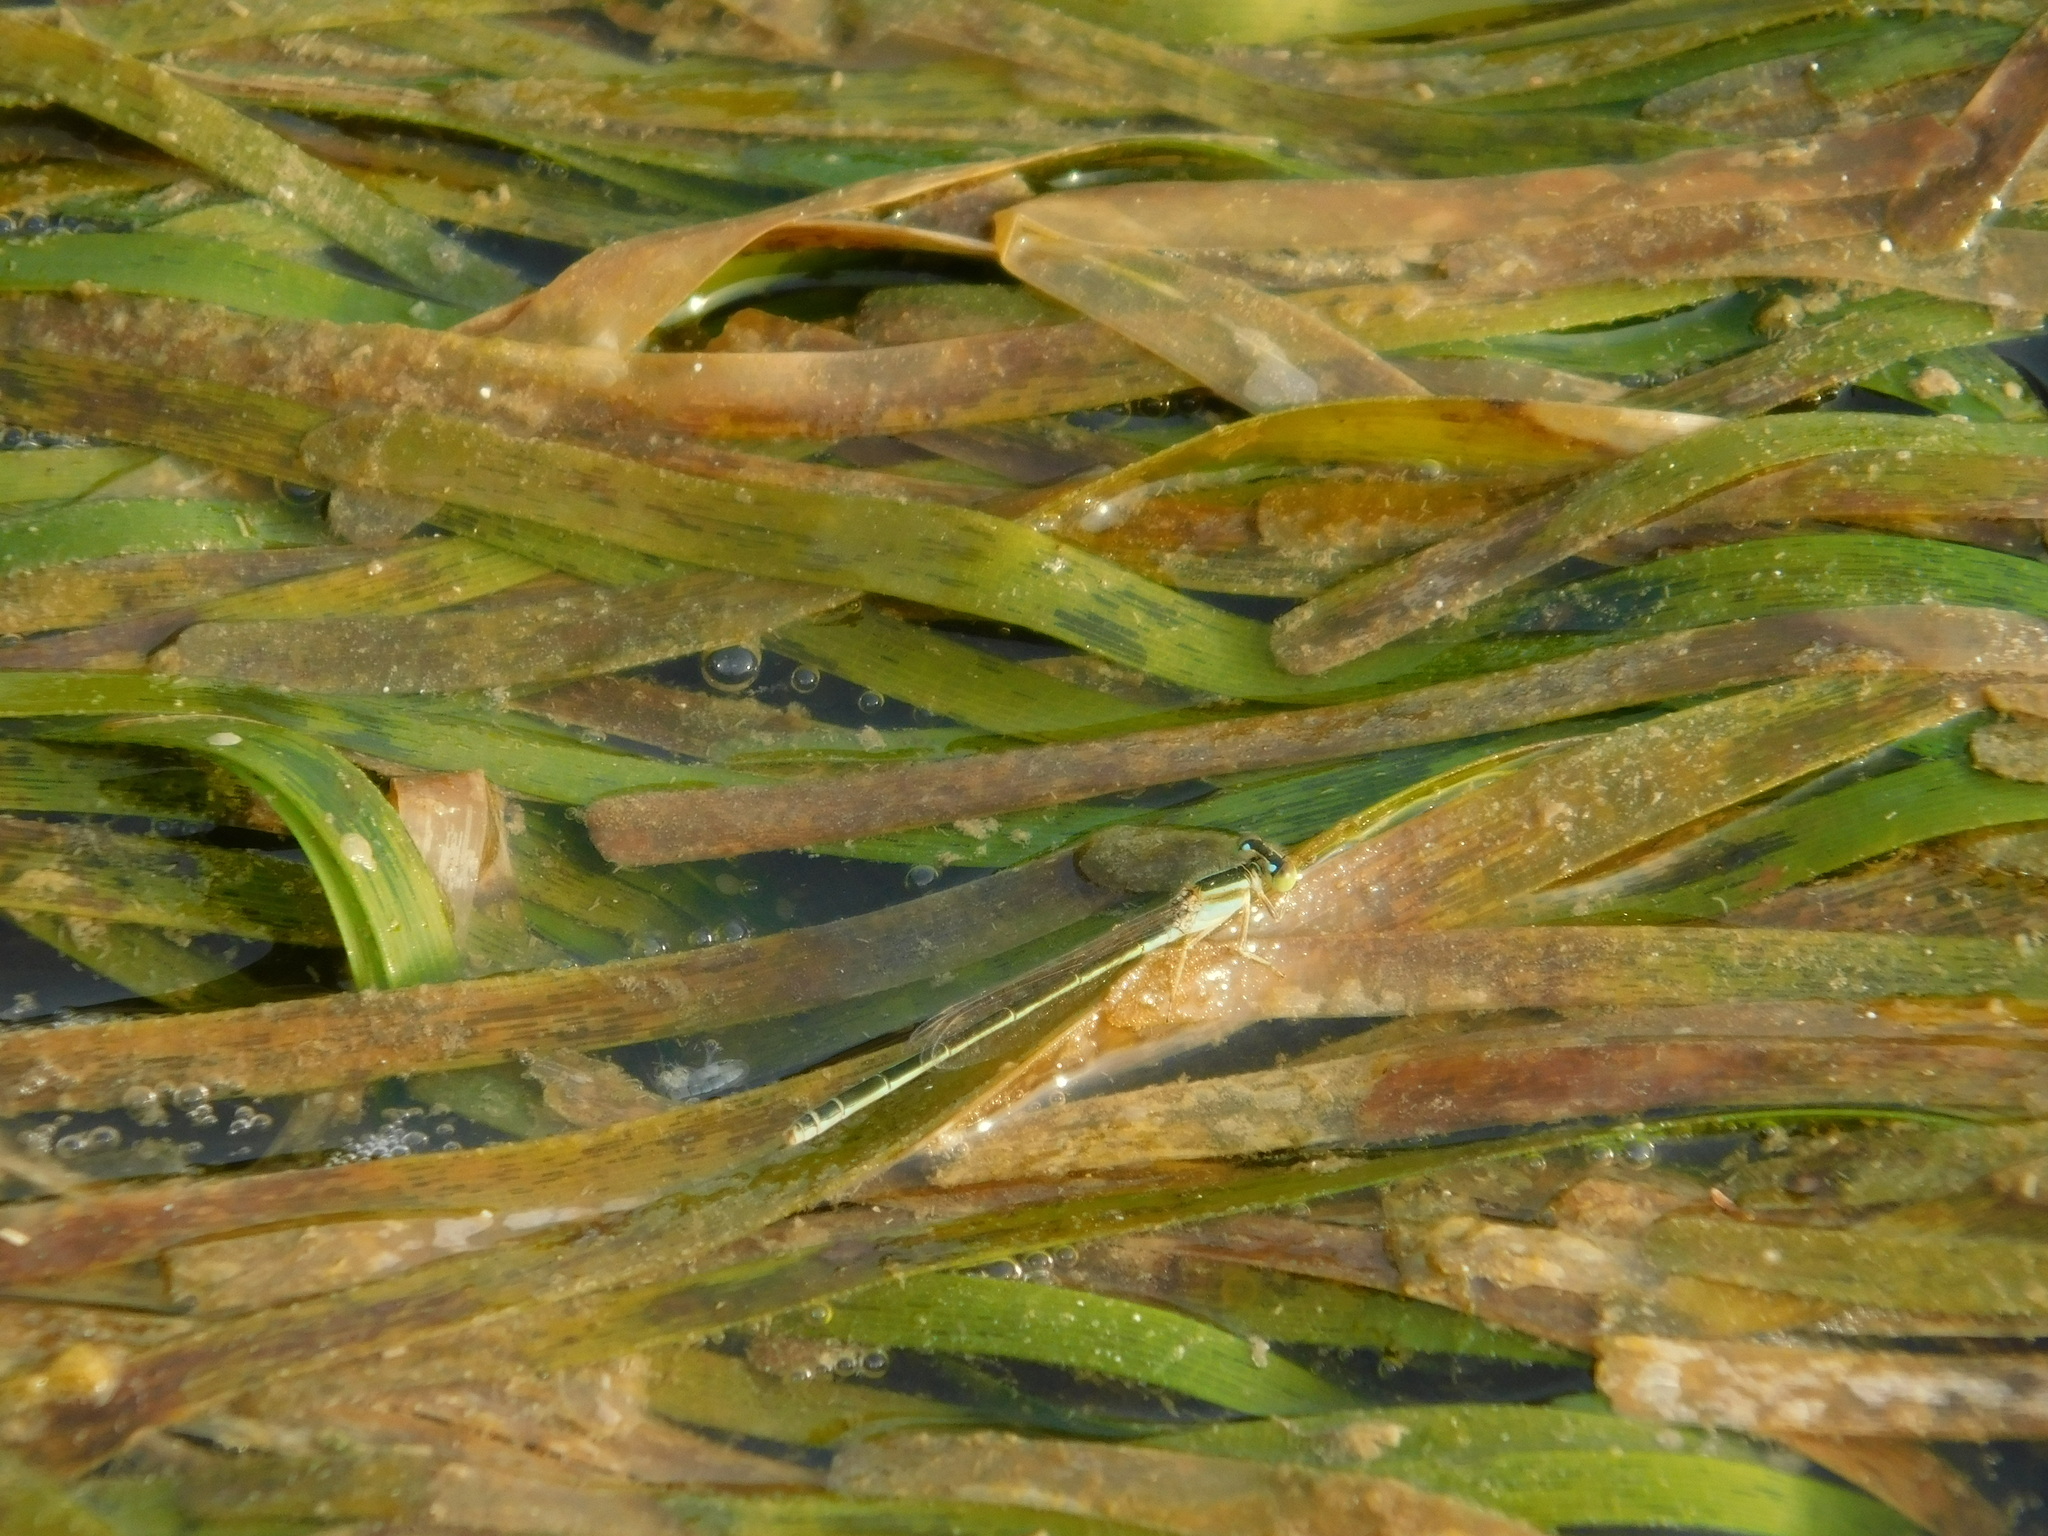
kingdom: Animalia
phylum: Arthropoda
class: Insecta
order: Odonata
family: Coenagrionidae
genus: Ischnura
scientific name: Ischnura senegalensis
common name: Tropical bluetail
